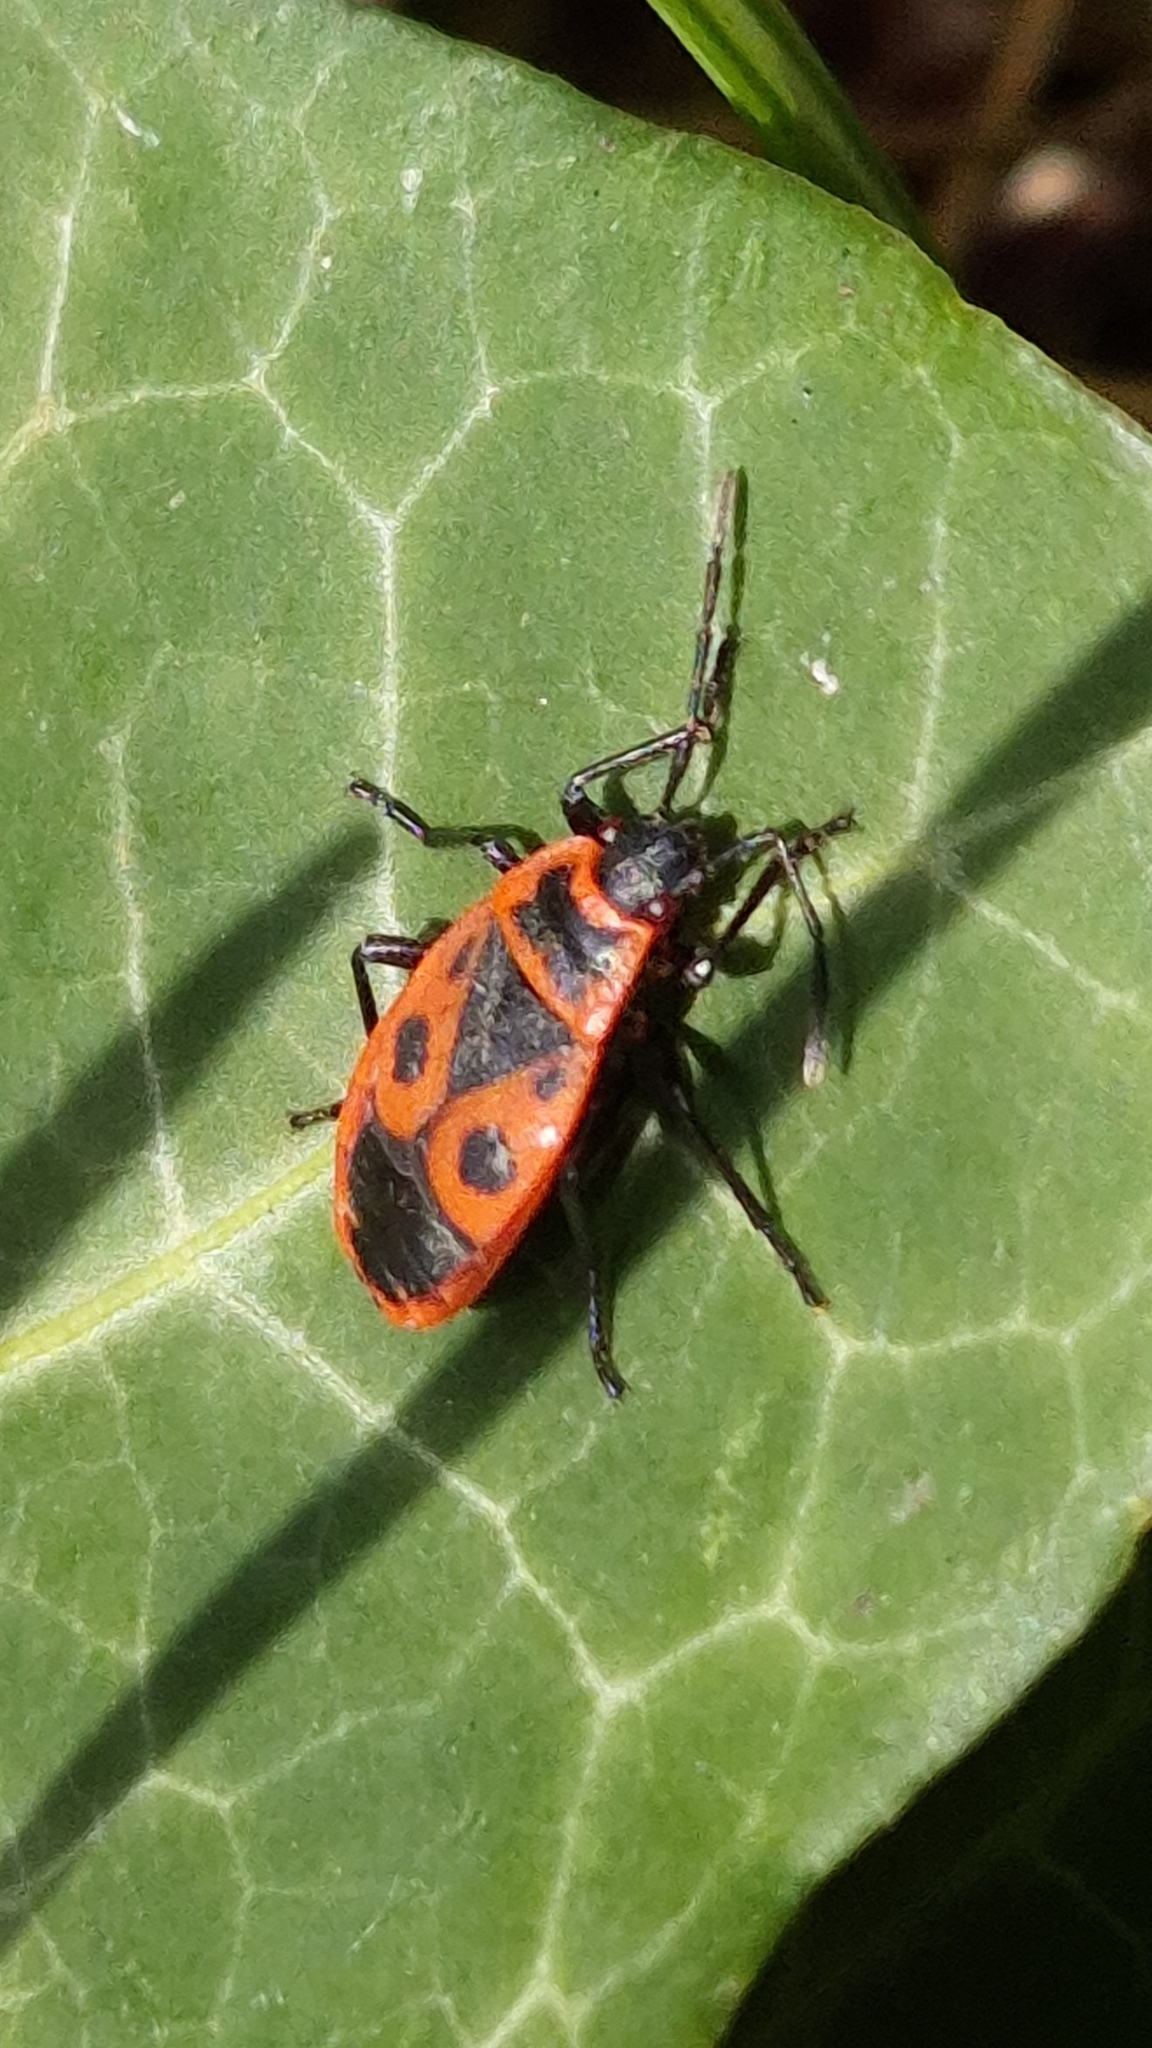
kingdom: Animalia
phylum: Arthropoda
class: Insecta
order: Hemiptera
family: Pyrrhocoridae
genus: Pyrrhocoris
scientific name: Pyrrhocoris apterus
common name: Firebug
